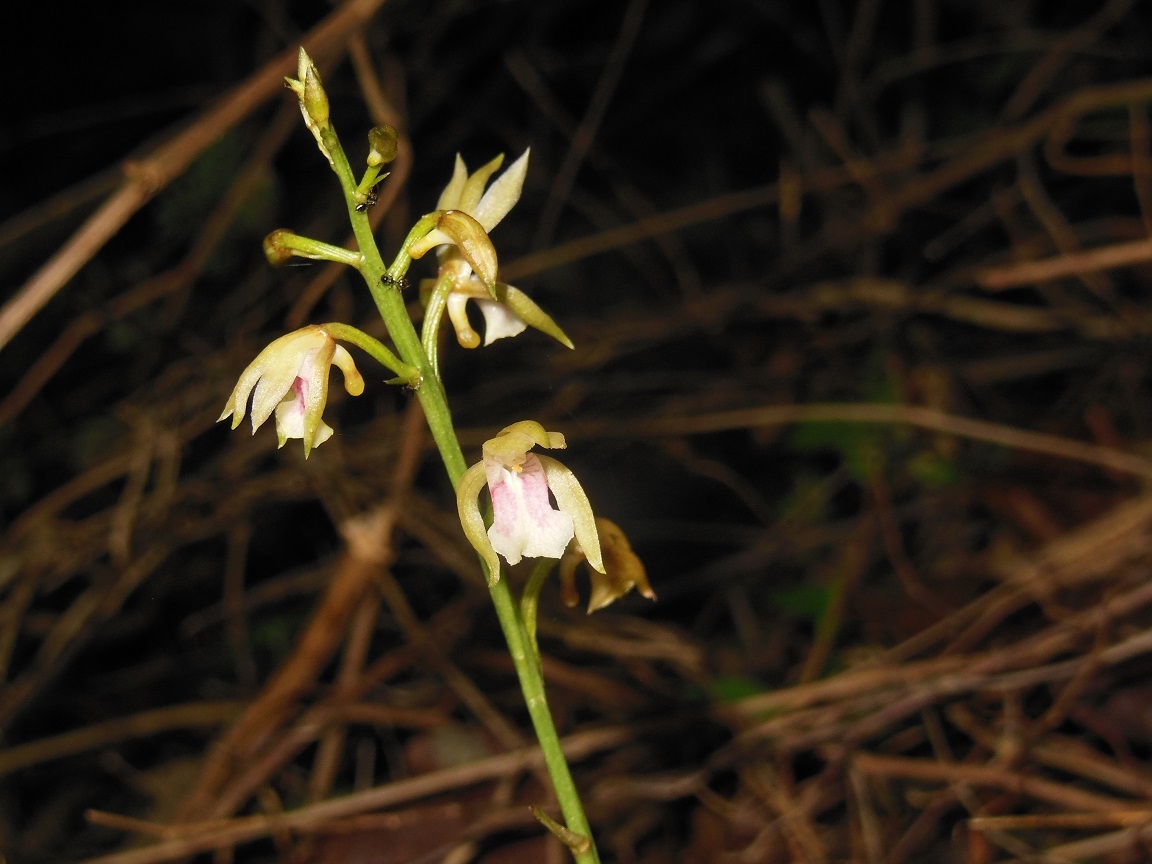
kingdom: Plantae
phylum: Tracheophyta
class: Liliopsida
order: Asparagales
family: Orchidaceae
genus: Eulophia
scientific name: Eulophia maculata
